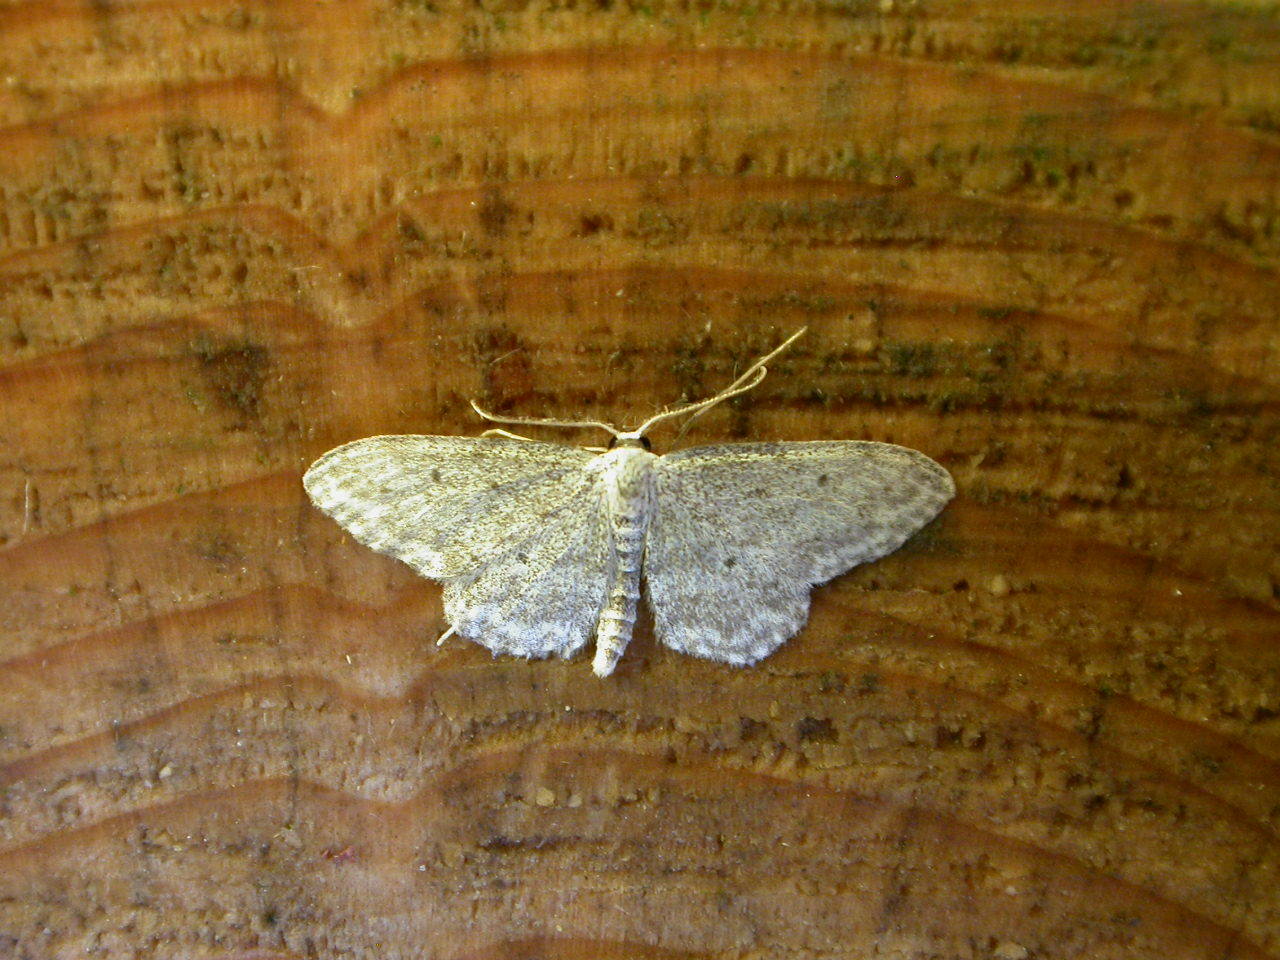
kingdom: Animalia
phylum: Arthropoda
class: Insecta
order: Lepidoptera
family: Geometridae
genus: Idaea
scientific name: Idaea seriata
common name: Small dusty wave
